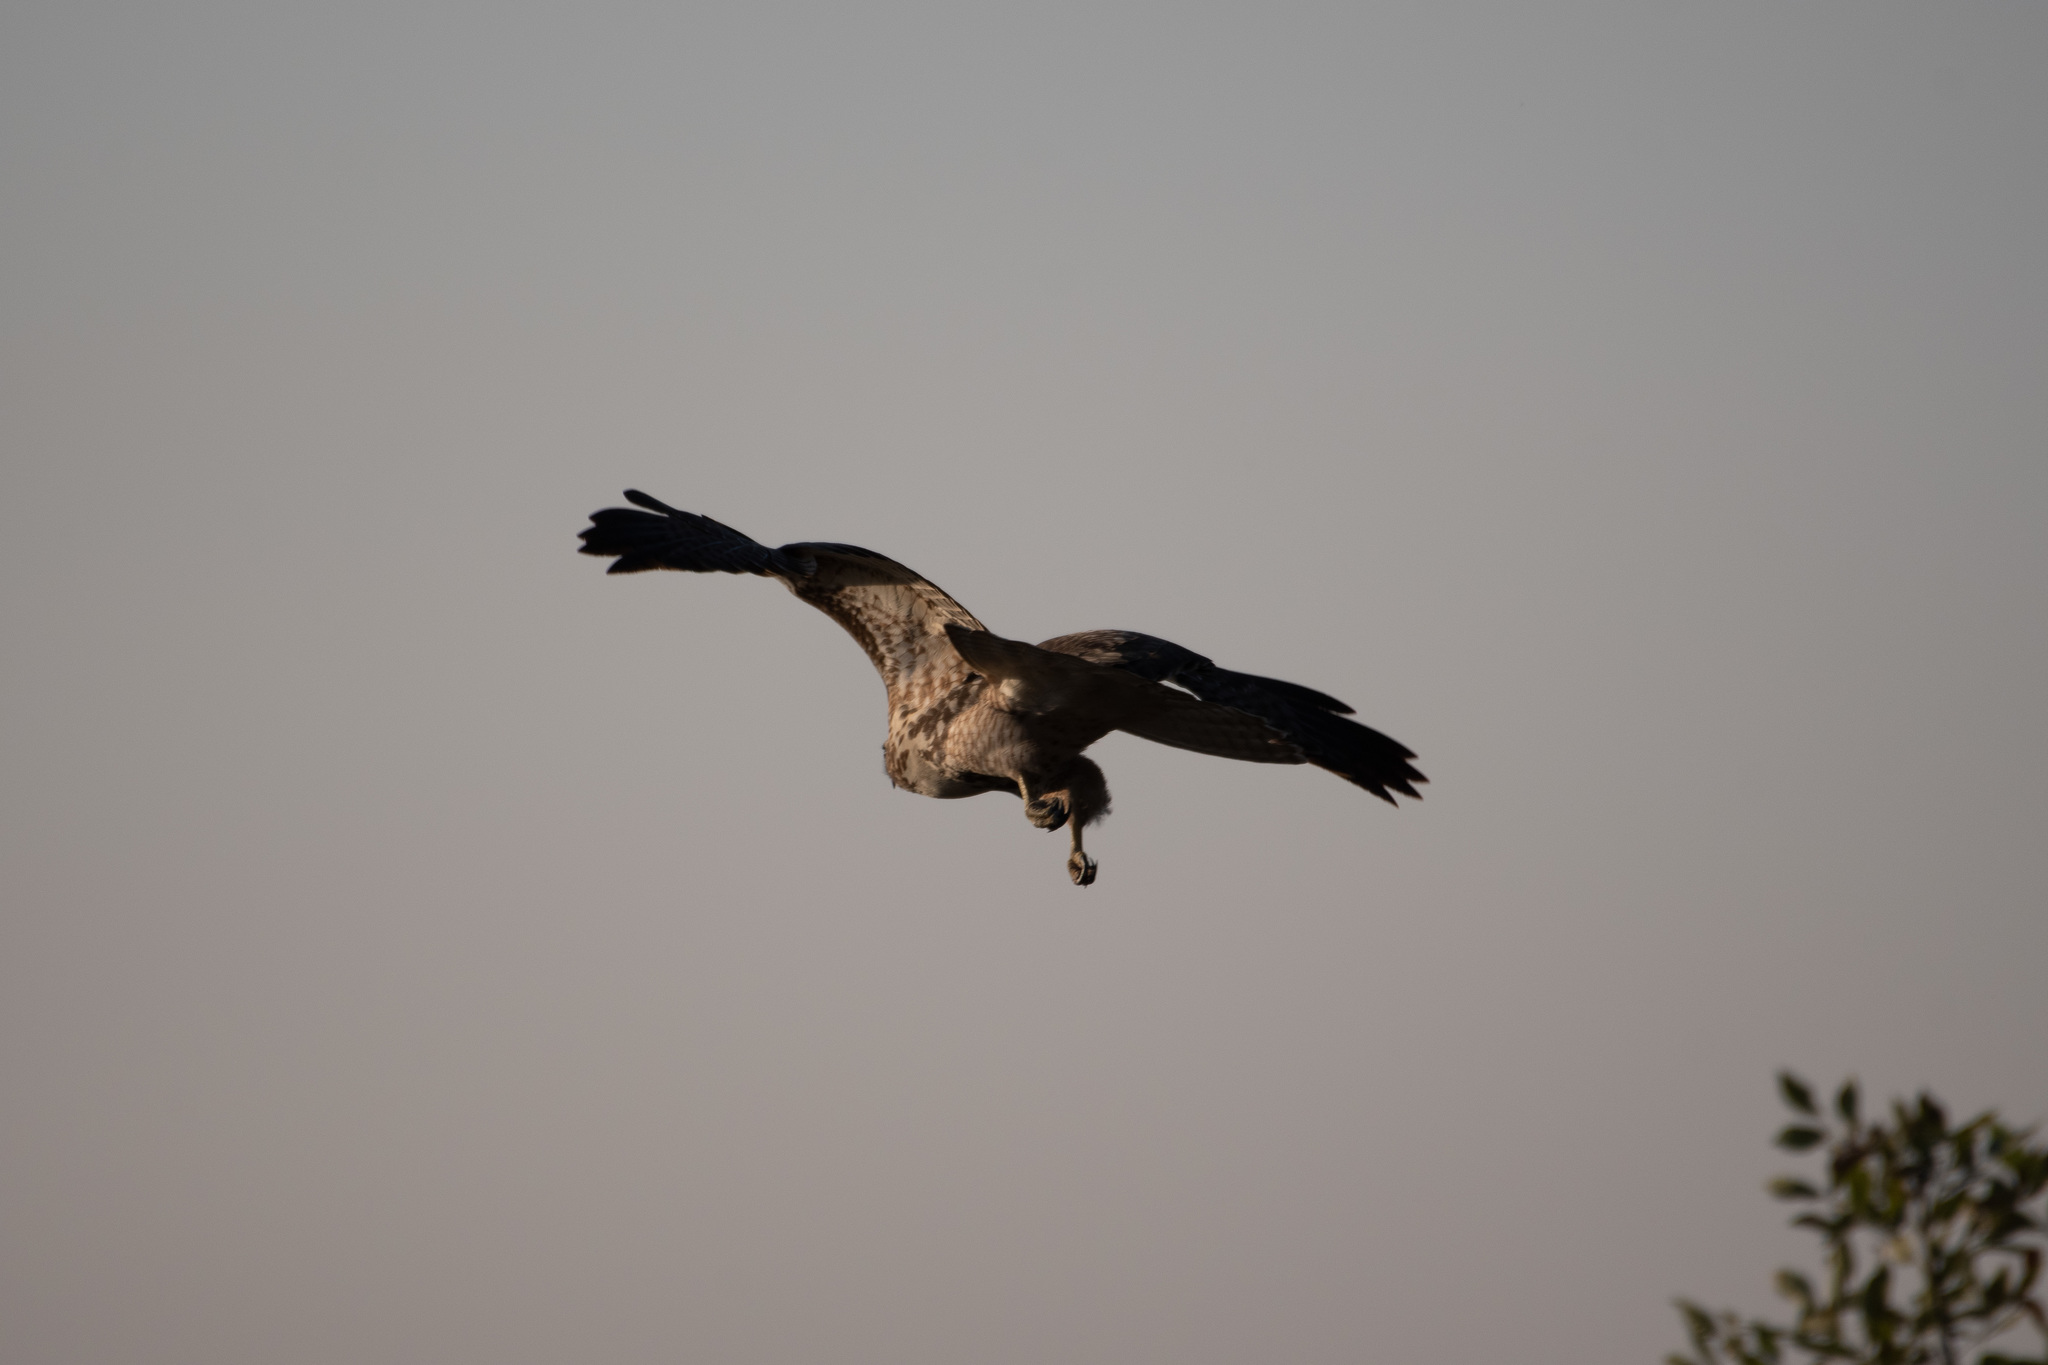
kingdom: Animalia
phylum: Chordata
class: Aves
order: Accipitriformes
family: Accipitridae
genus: Buteo
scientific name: Buteo jamaicensis
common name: Red-tailed hawk
